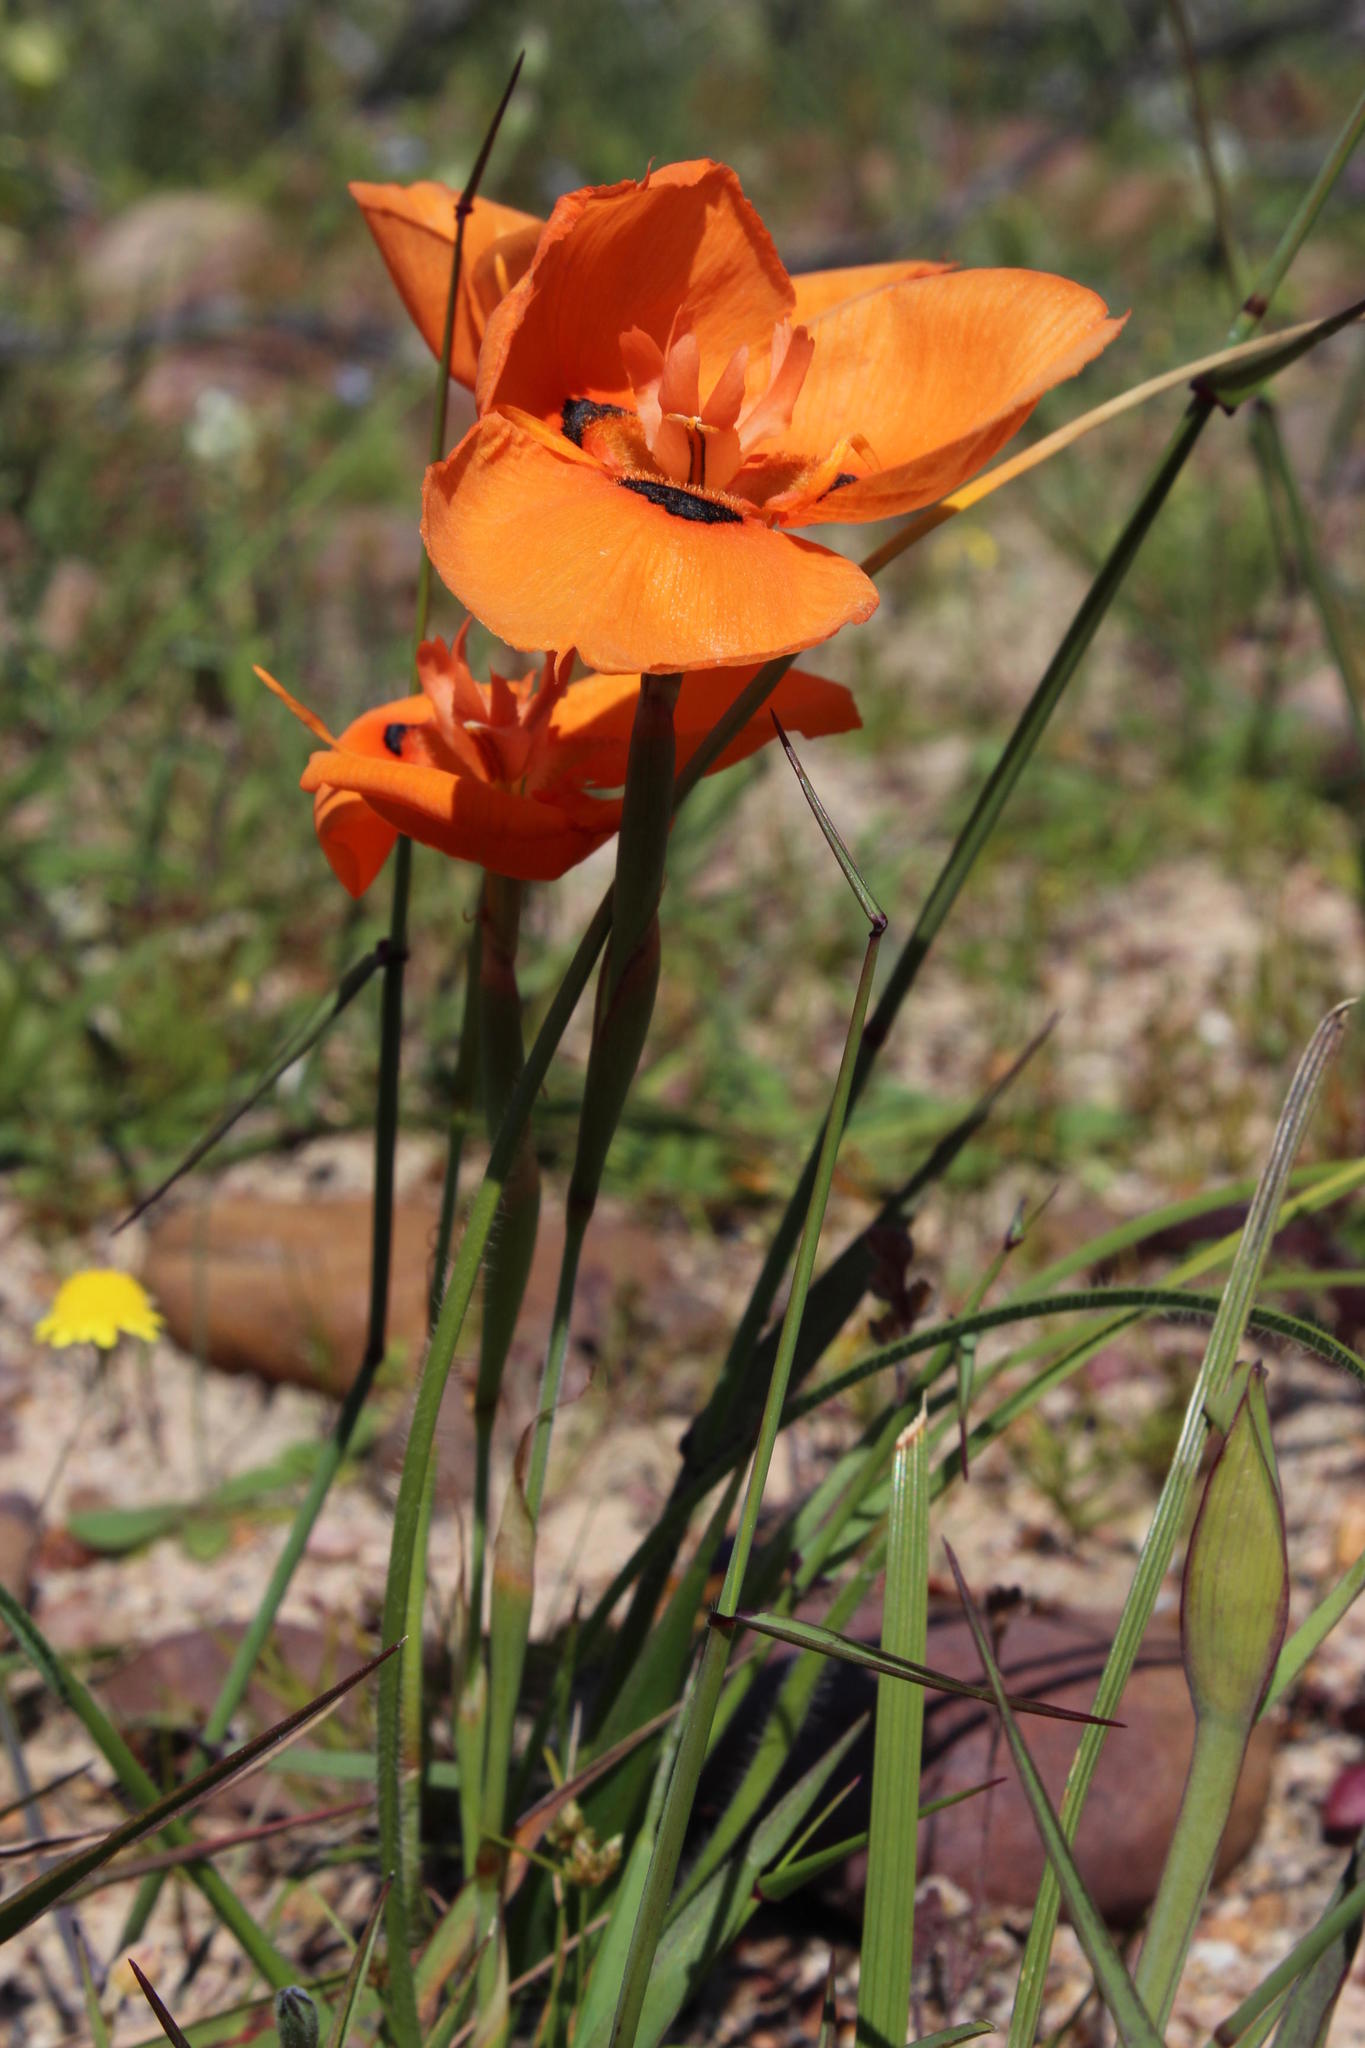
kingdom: Plantae
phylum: Tracheophyta
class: Liliopsida
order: Asparagales
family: Iridaceae
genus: Moraea
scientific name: Moraea villosa
